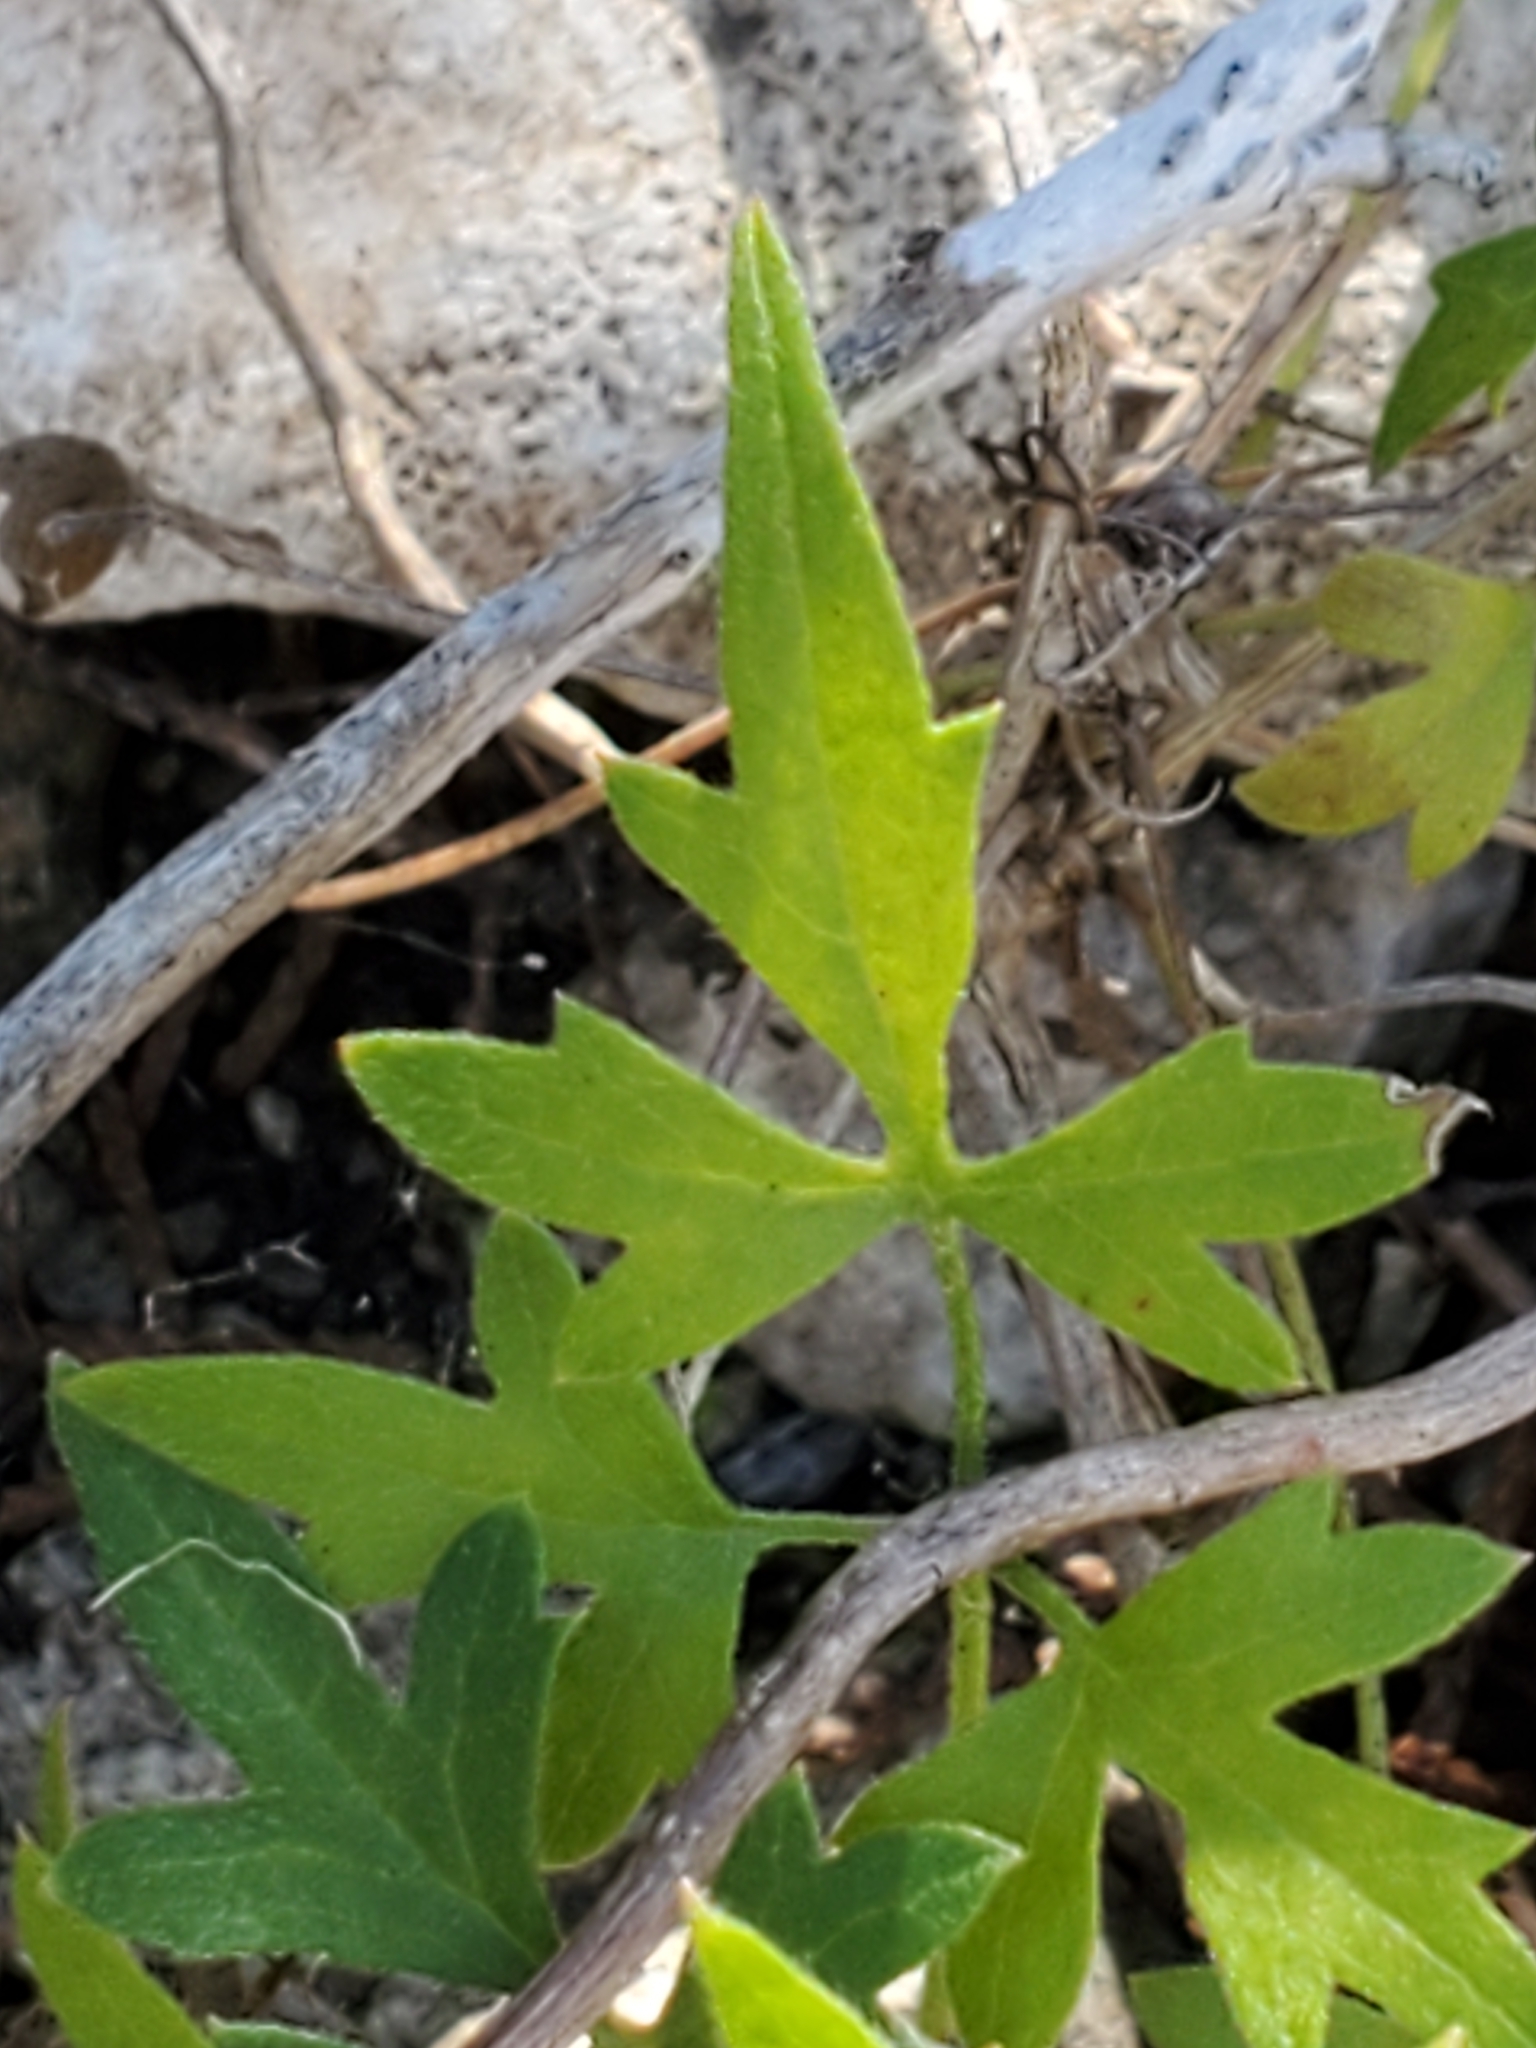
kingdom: Plantae
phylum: Tracheophyta
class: Magnoliopsida
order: Ranunculales
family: Ranunculaceae
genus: Clematis
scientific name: Clematis drummondii
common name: Texas virgin's bower
